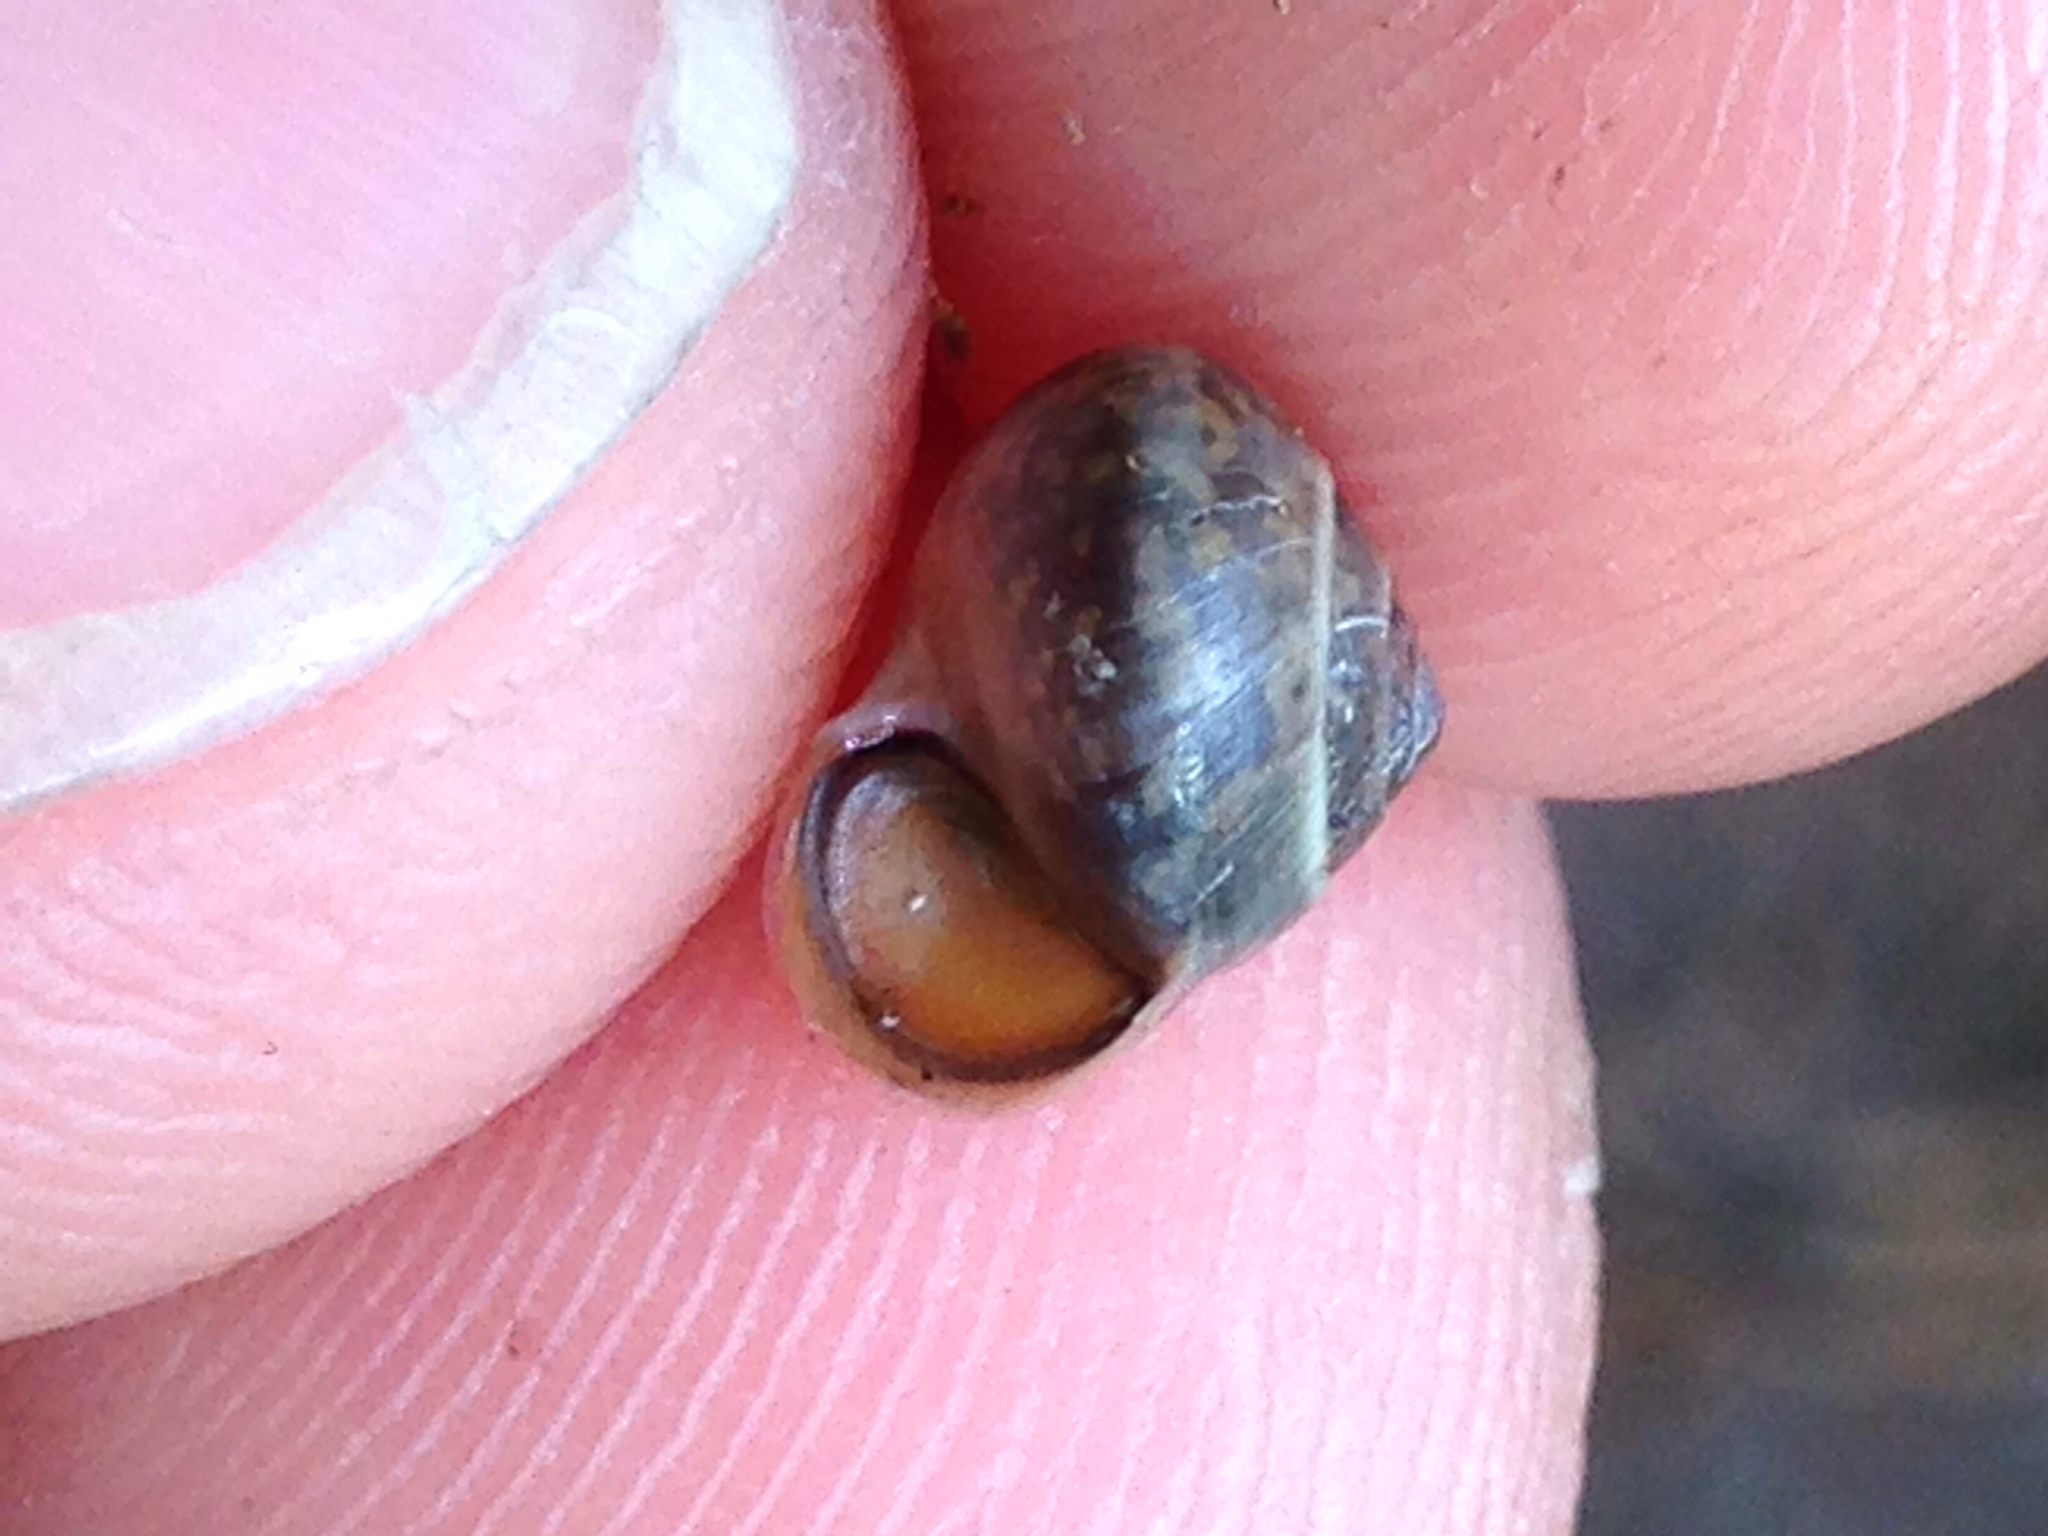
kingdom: Animalia
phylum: Mollusca
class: Gastropoda
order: Cycloneritida
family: Helicinidae
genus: Helicina
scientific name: Helicina orbiculata
